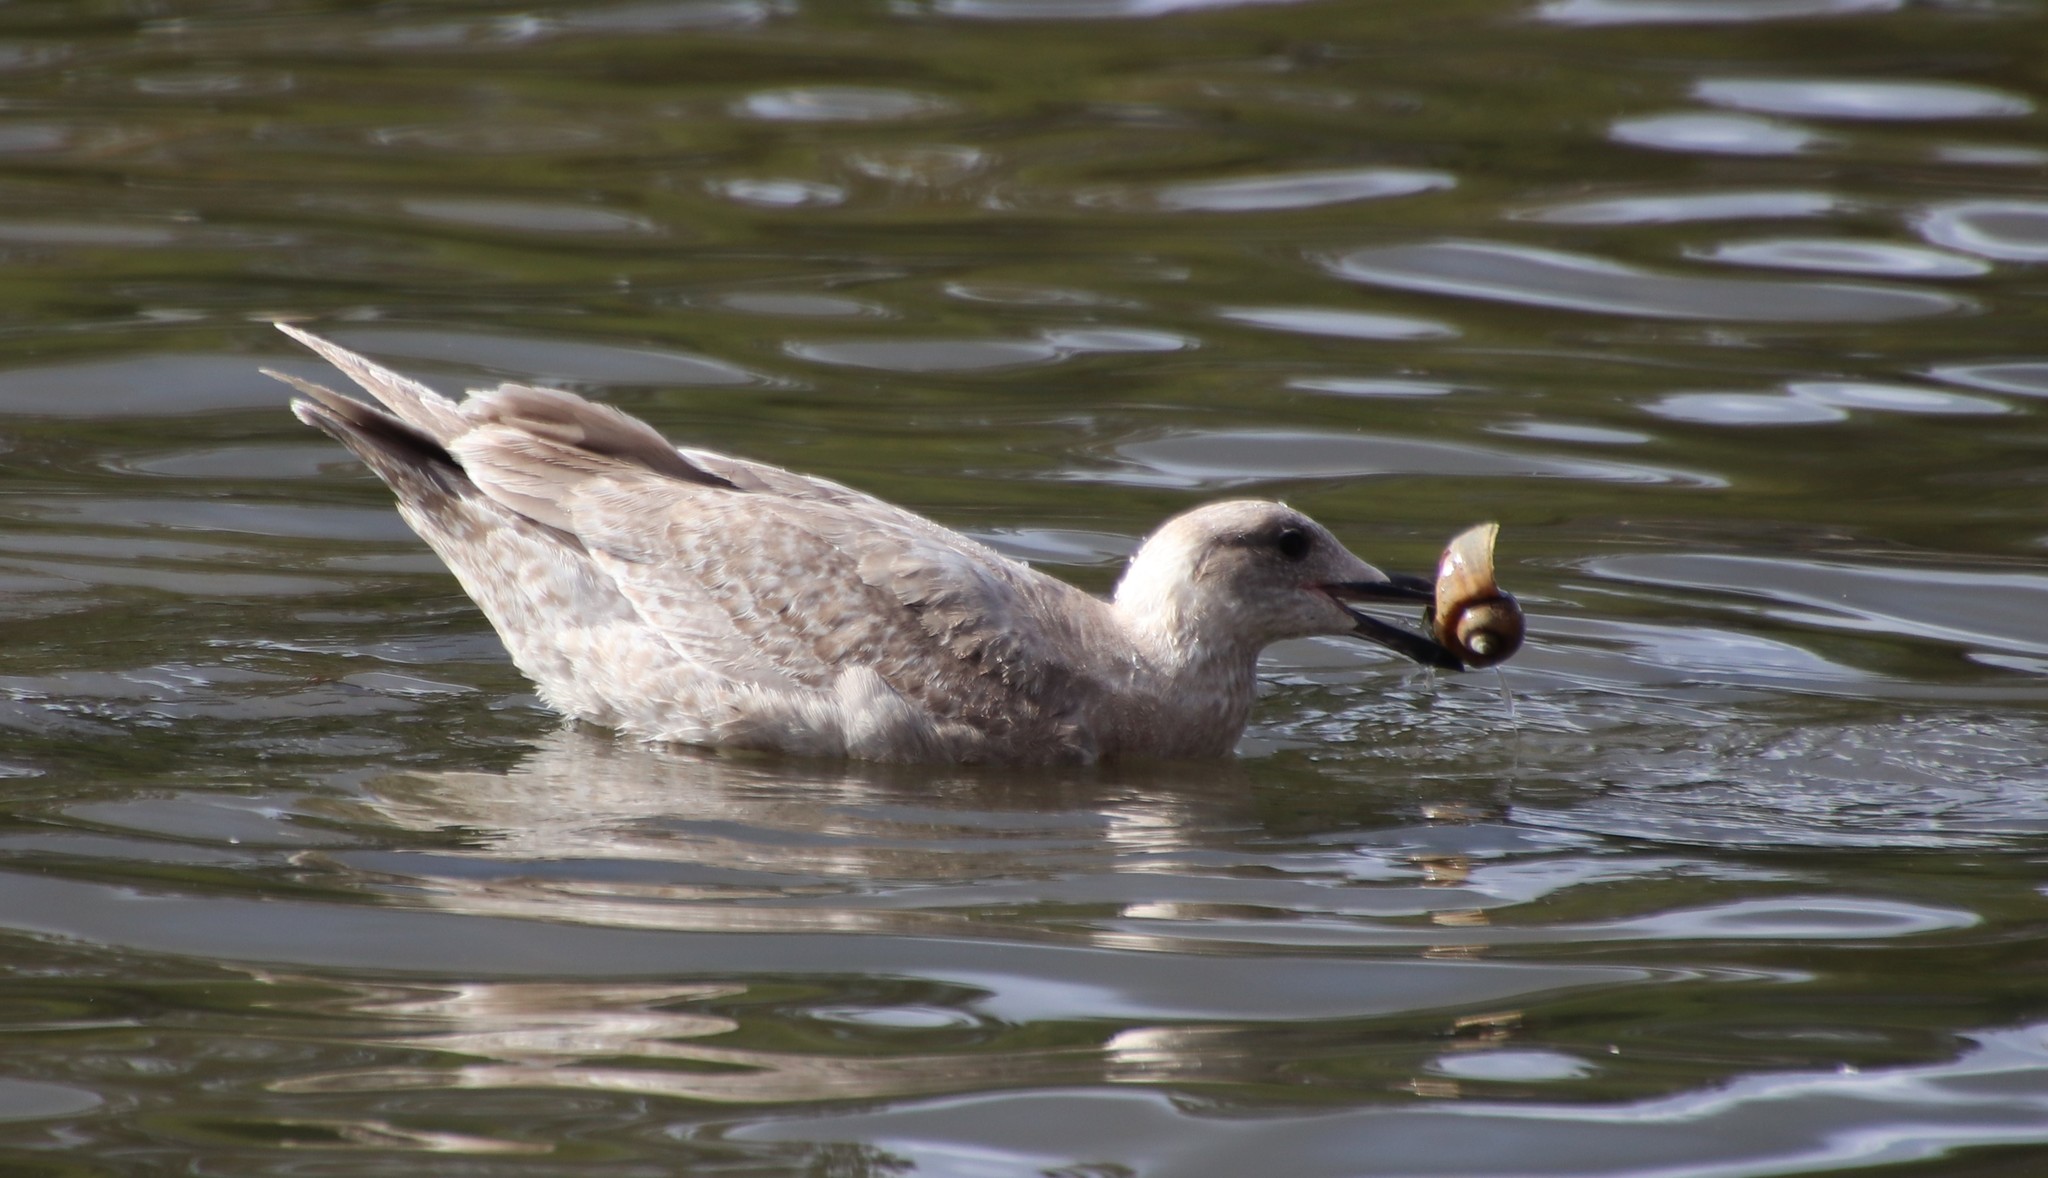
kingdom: Animalia
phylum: Chordata
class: Aves
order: Charadriiformes
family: Laridae
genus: Larus
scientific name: Larus glaucescens
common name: Glaucous-winged gull
